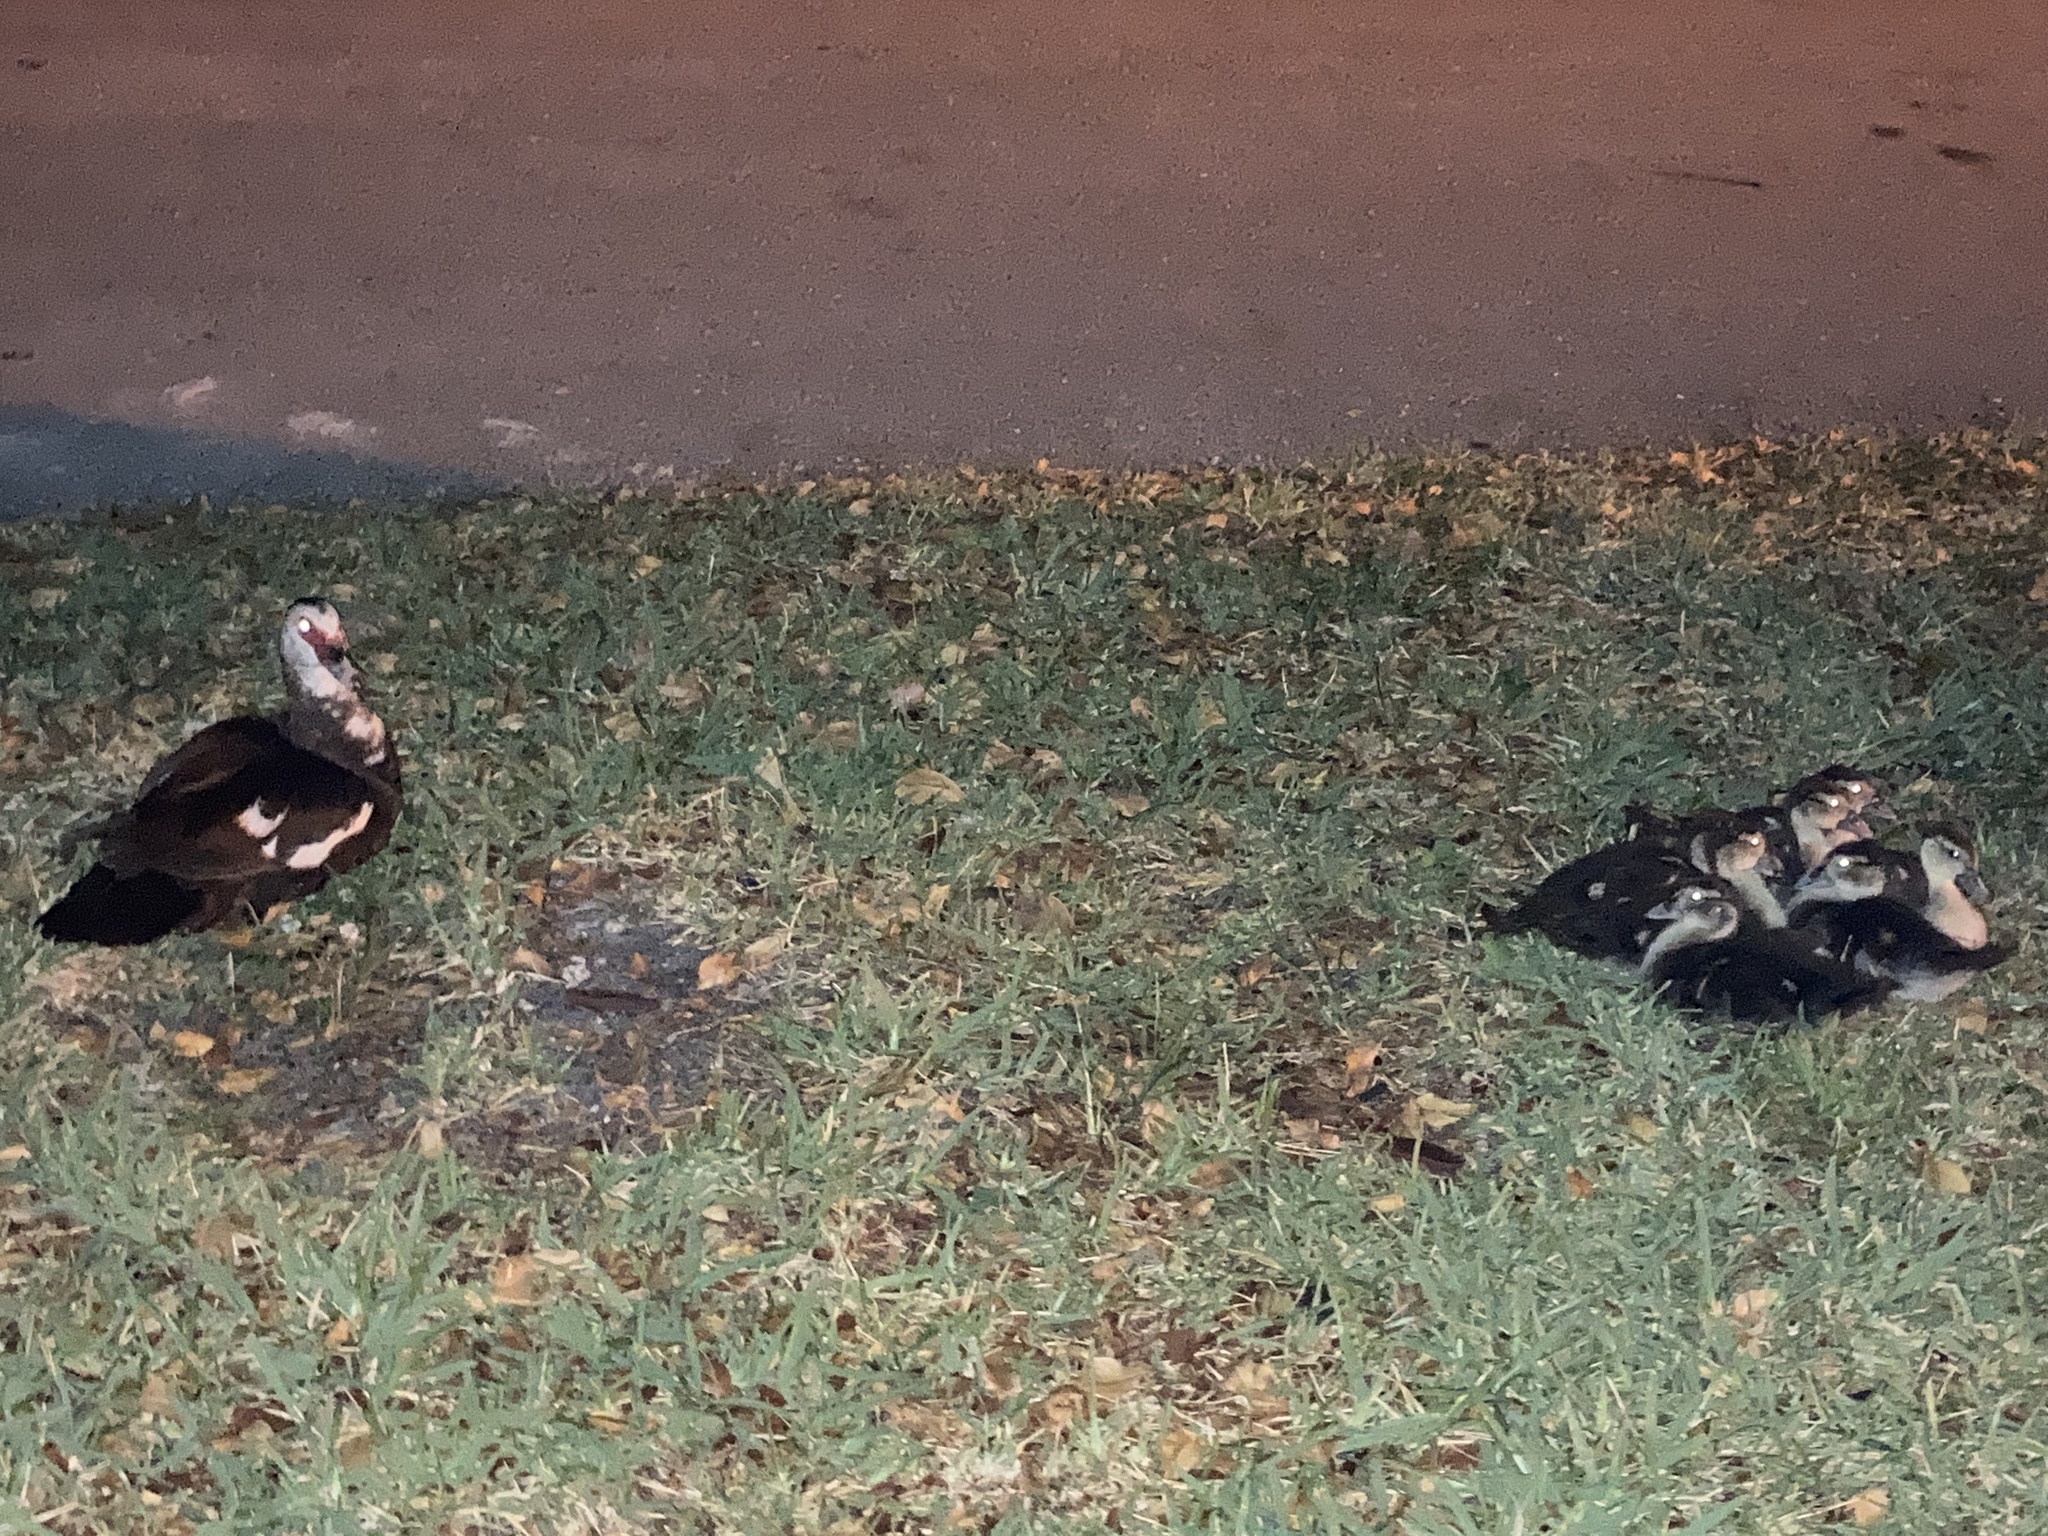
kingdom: Animalia
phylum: Chordata
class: Aves
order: Anseriformes
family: Anatidae
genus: Cairina
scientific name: Cairina moschata
